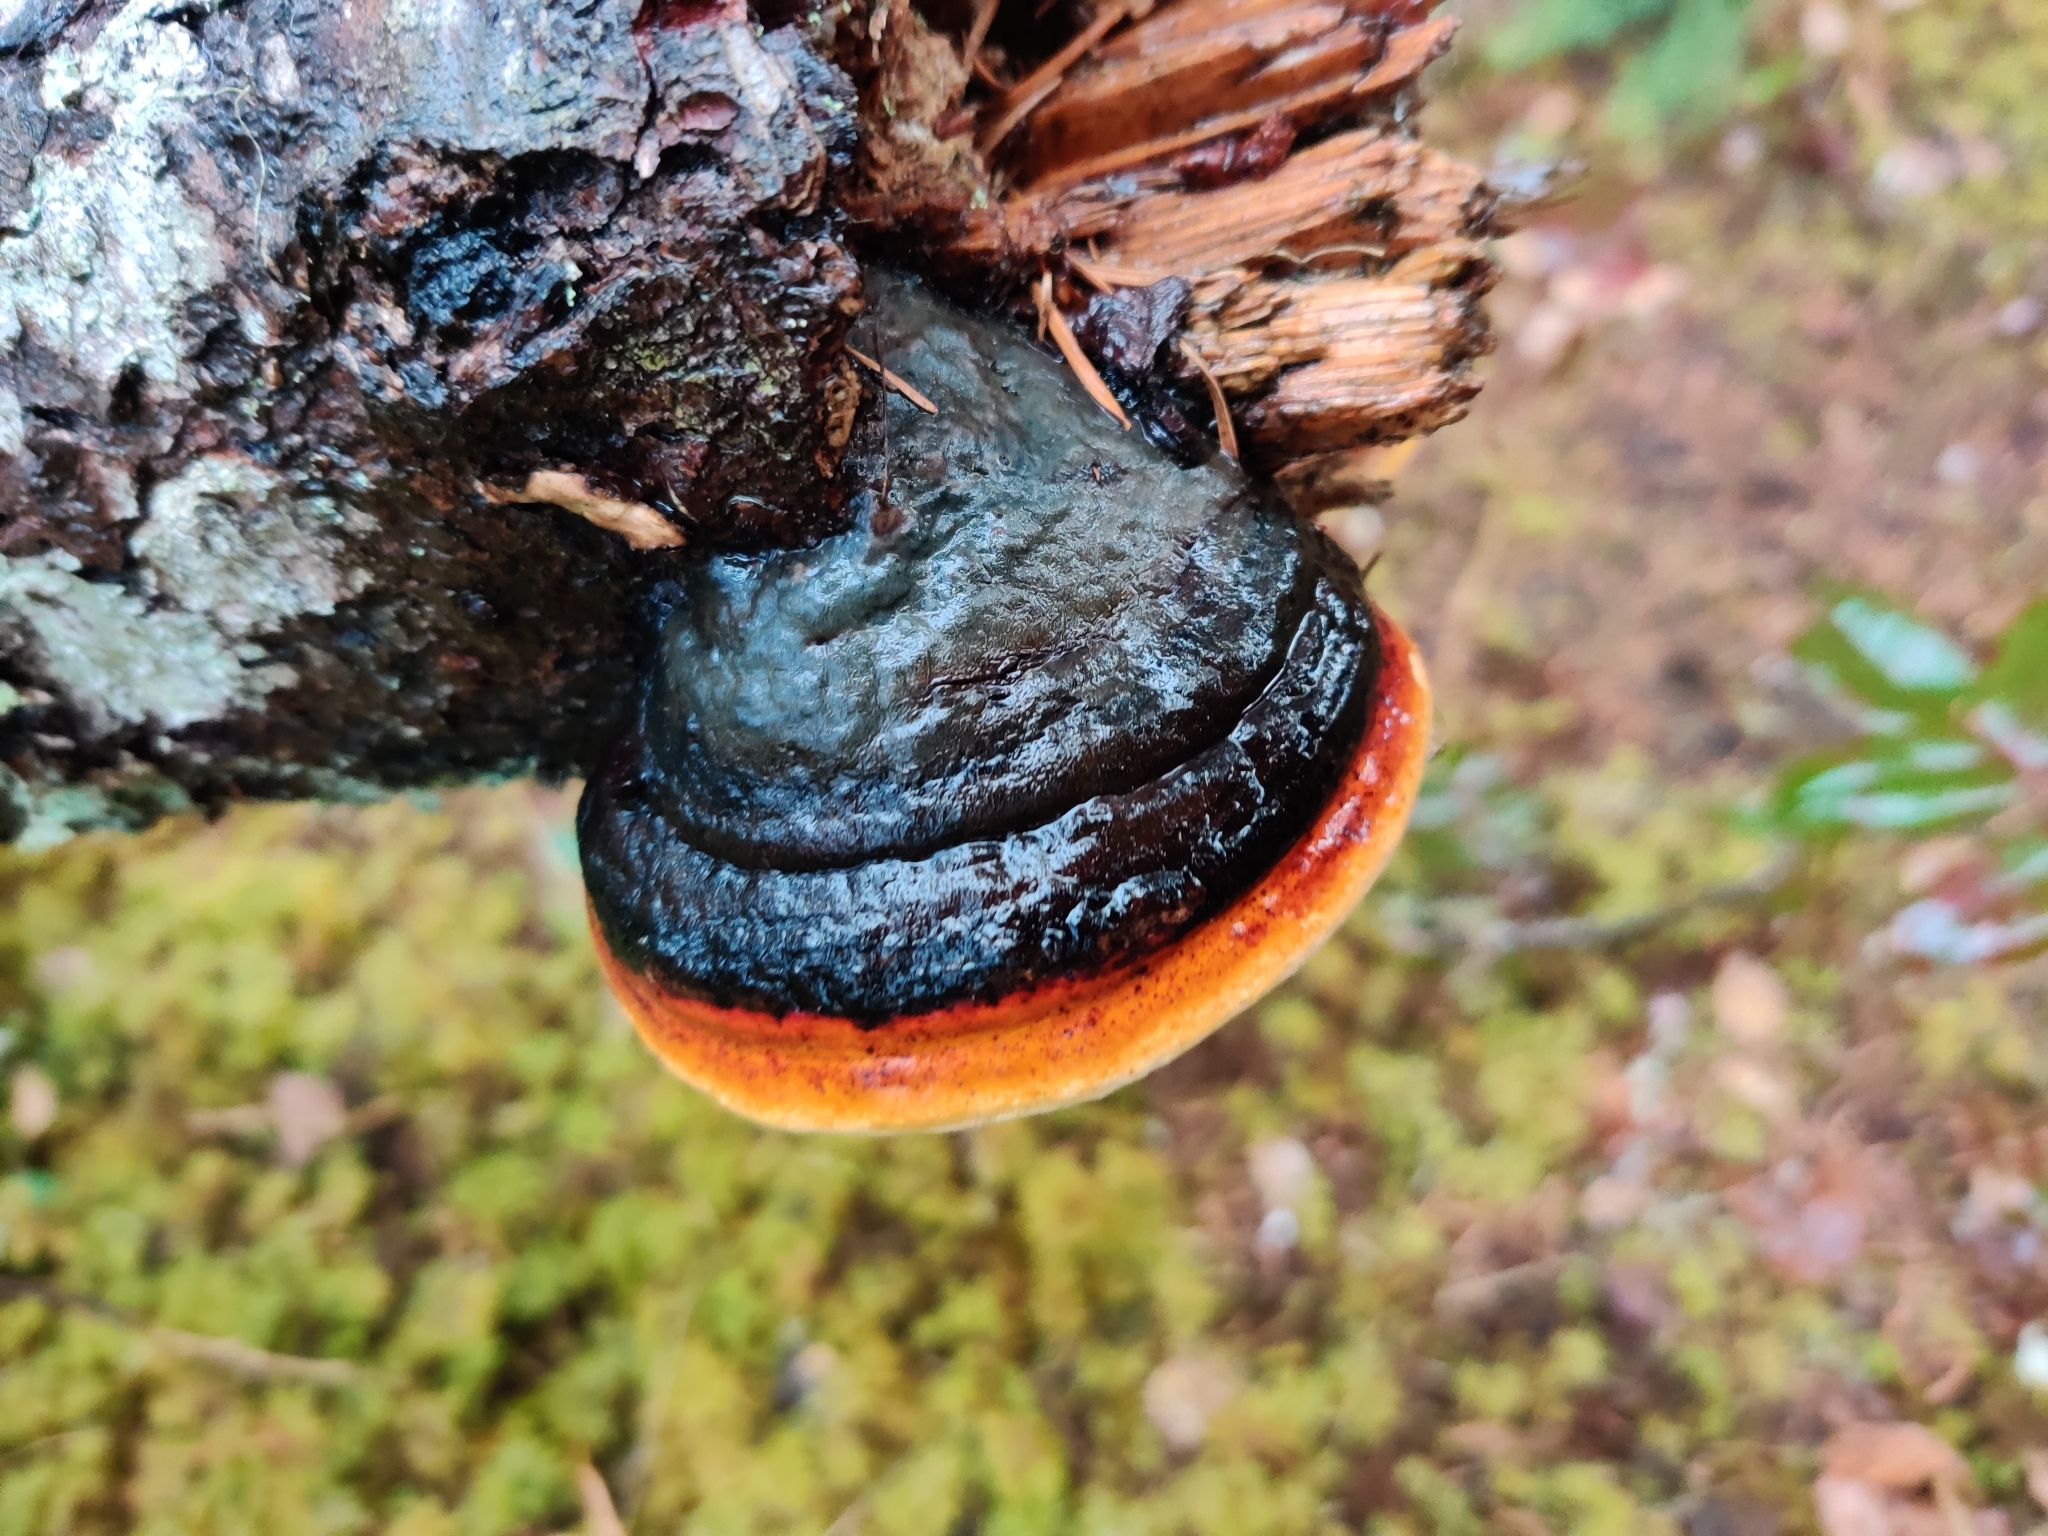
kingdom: Fungi
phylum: Basidiomycota
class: Agaricomycetes
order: Polyporales
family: Fomitopsidaceae
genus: Fomitopsis
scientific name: Fomitopsis mounceae
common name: Northern red belt
